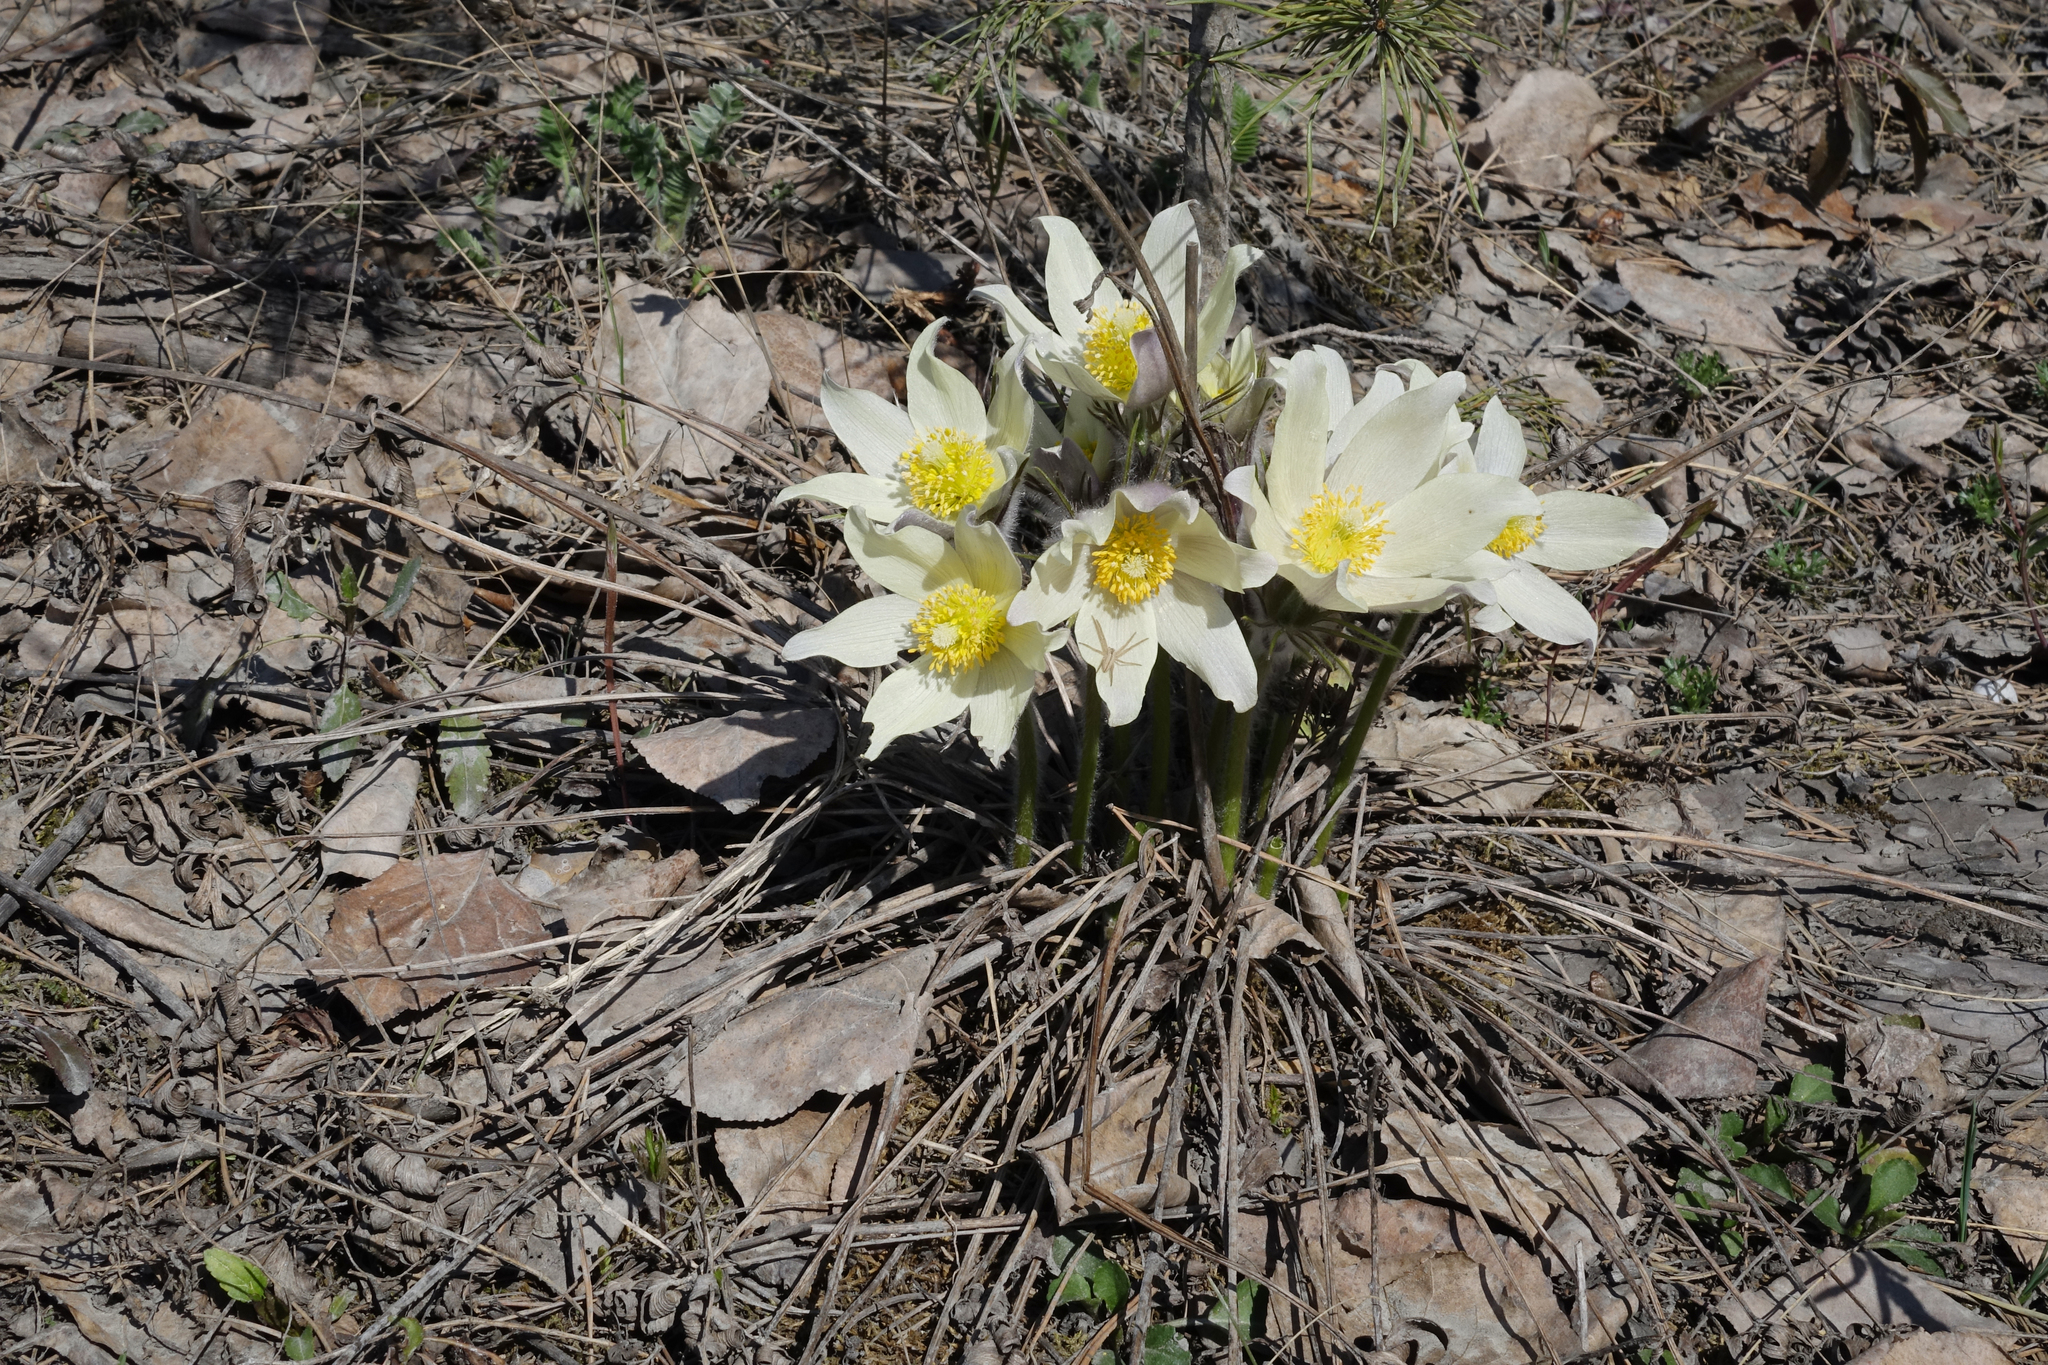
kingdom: Plantae
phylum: Tracheophyta
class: Magnoliopsida
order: Ranunculales
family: Ranunculaceae
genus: Pulsatilla
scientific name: Pulsatilla patens
